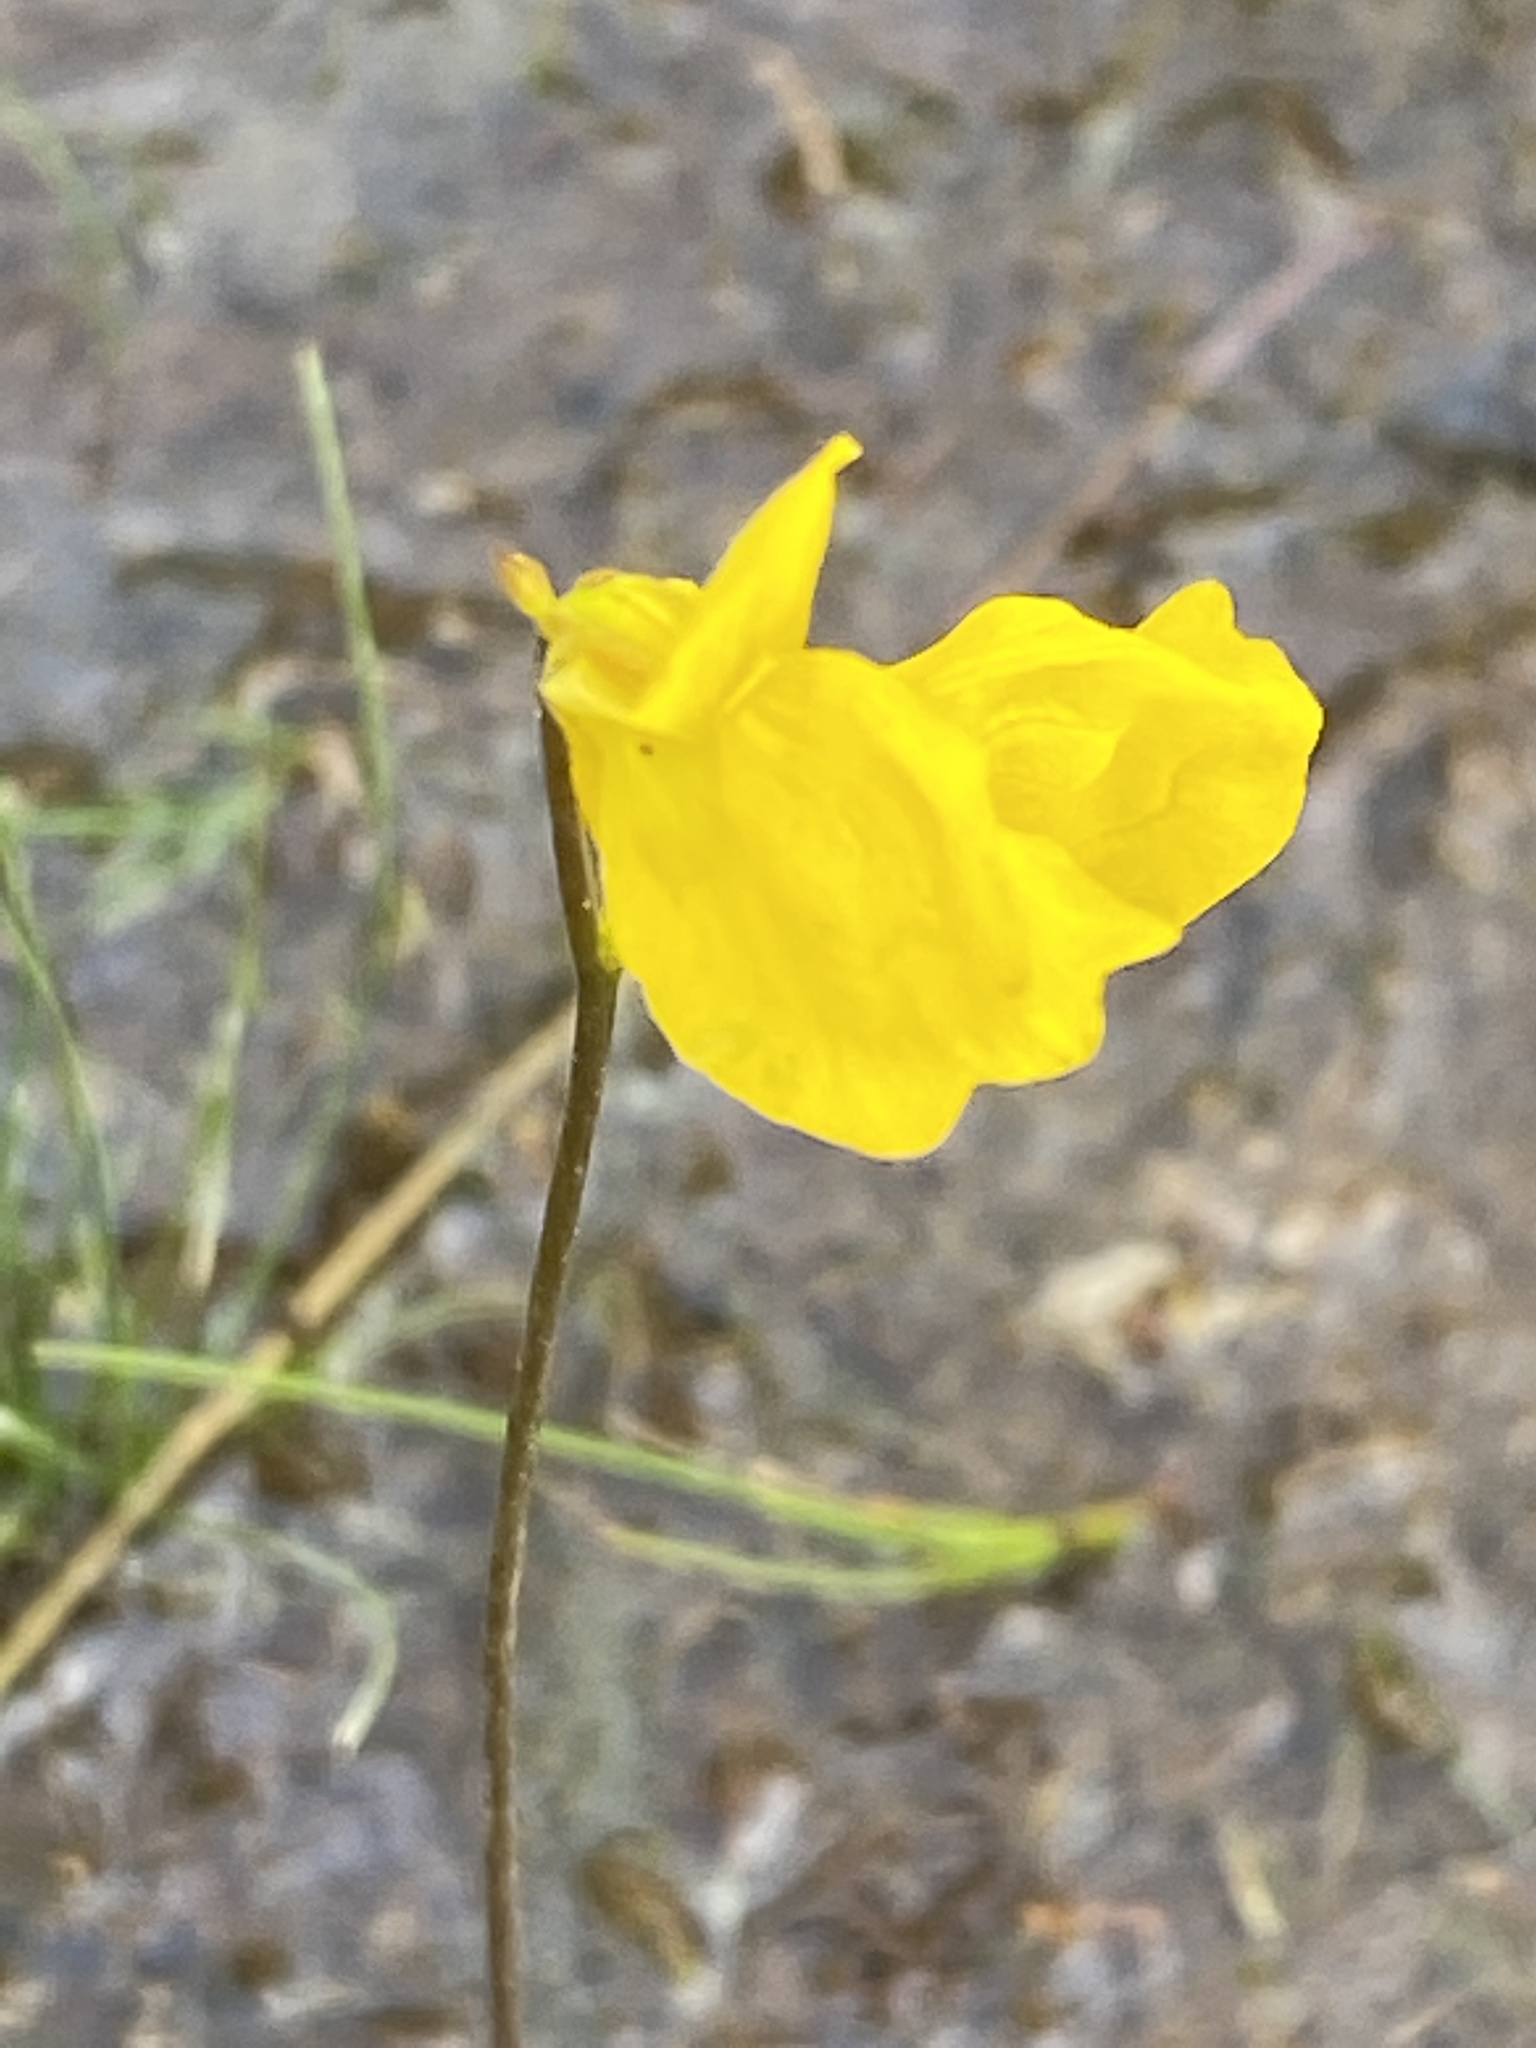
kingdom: Plantae
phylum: Tracheophyta
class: Magnoliopsida
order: Lamiales
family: Lentibulariaceae
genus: Utricularia
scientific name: Utricularia cornuta
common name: Horned bladderwort
